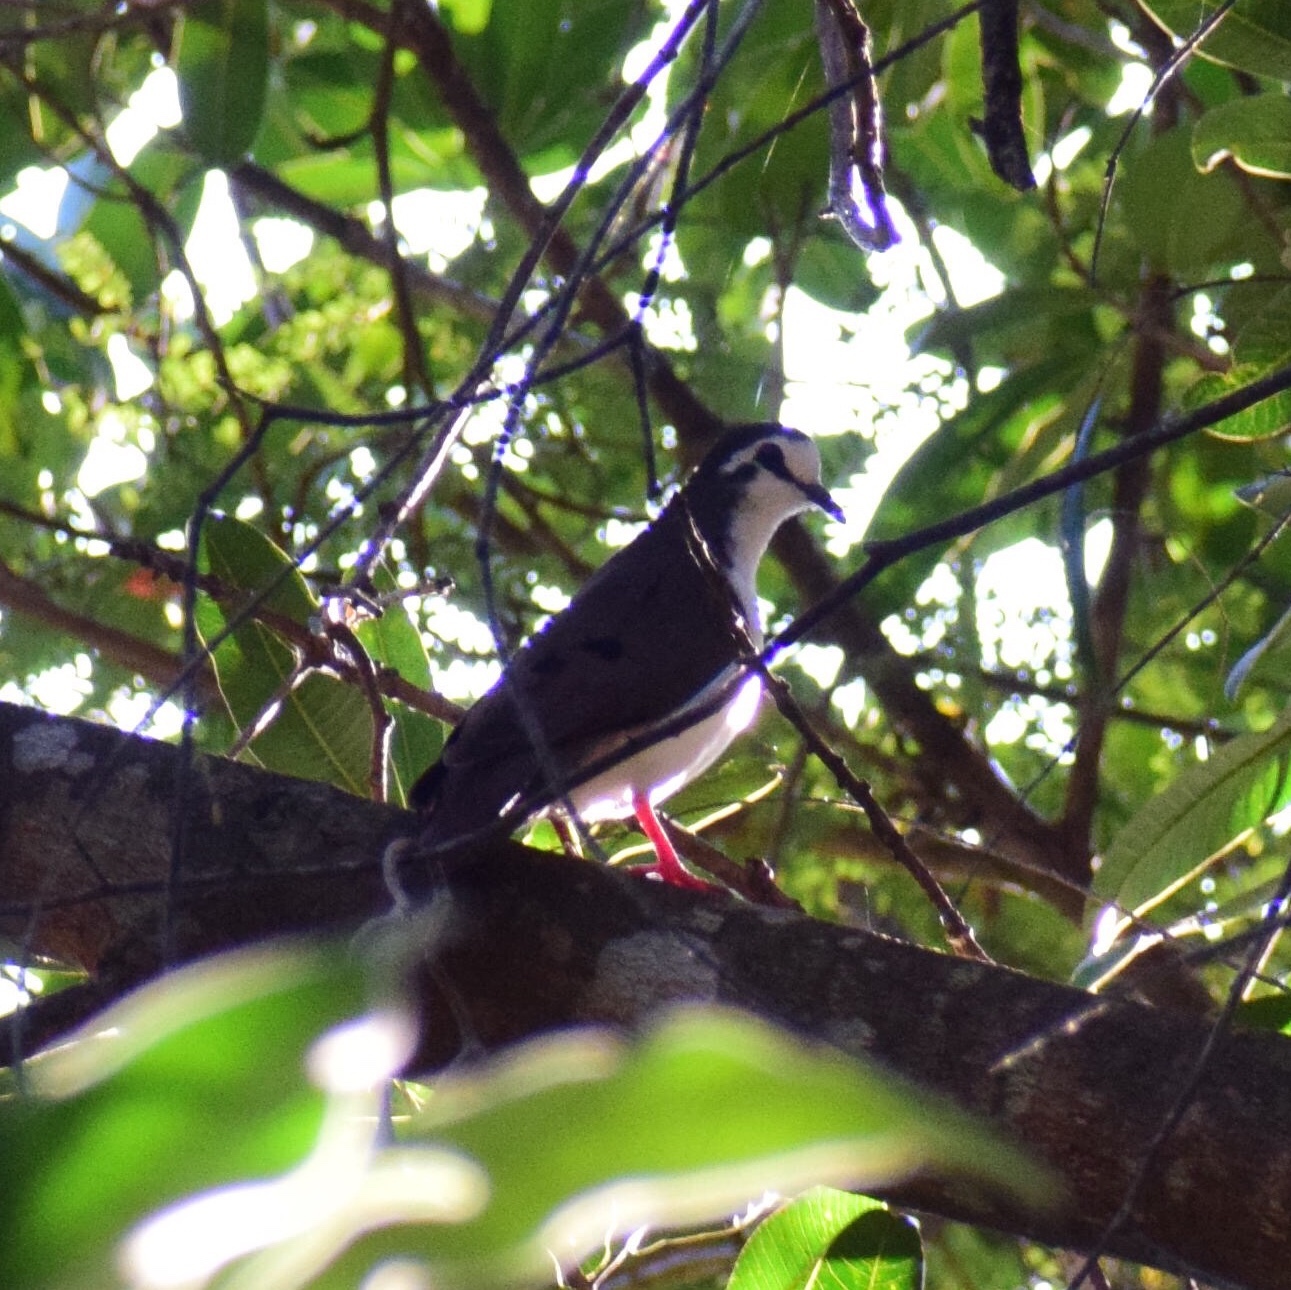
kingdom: Animalia
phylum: Chordata
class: Aves
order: Columbiformes
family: Columbidae
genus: Turtur
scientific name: Turtur tympanistria
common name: Tambourine dove
